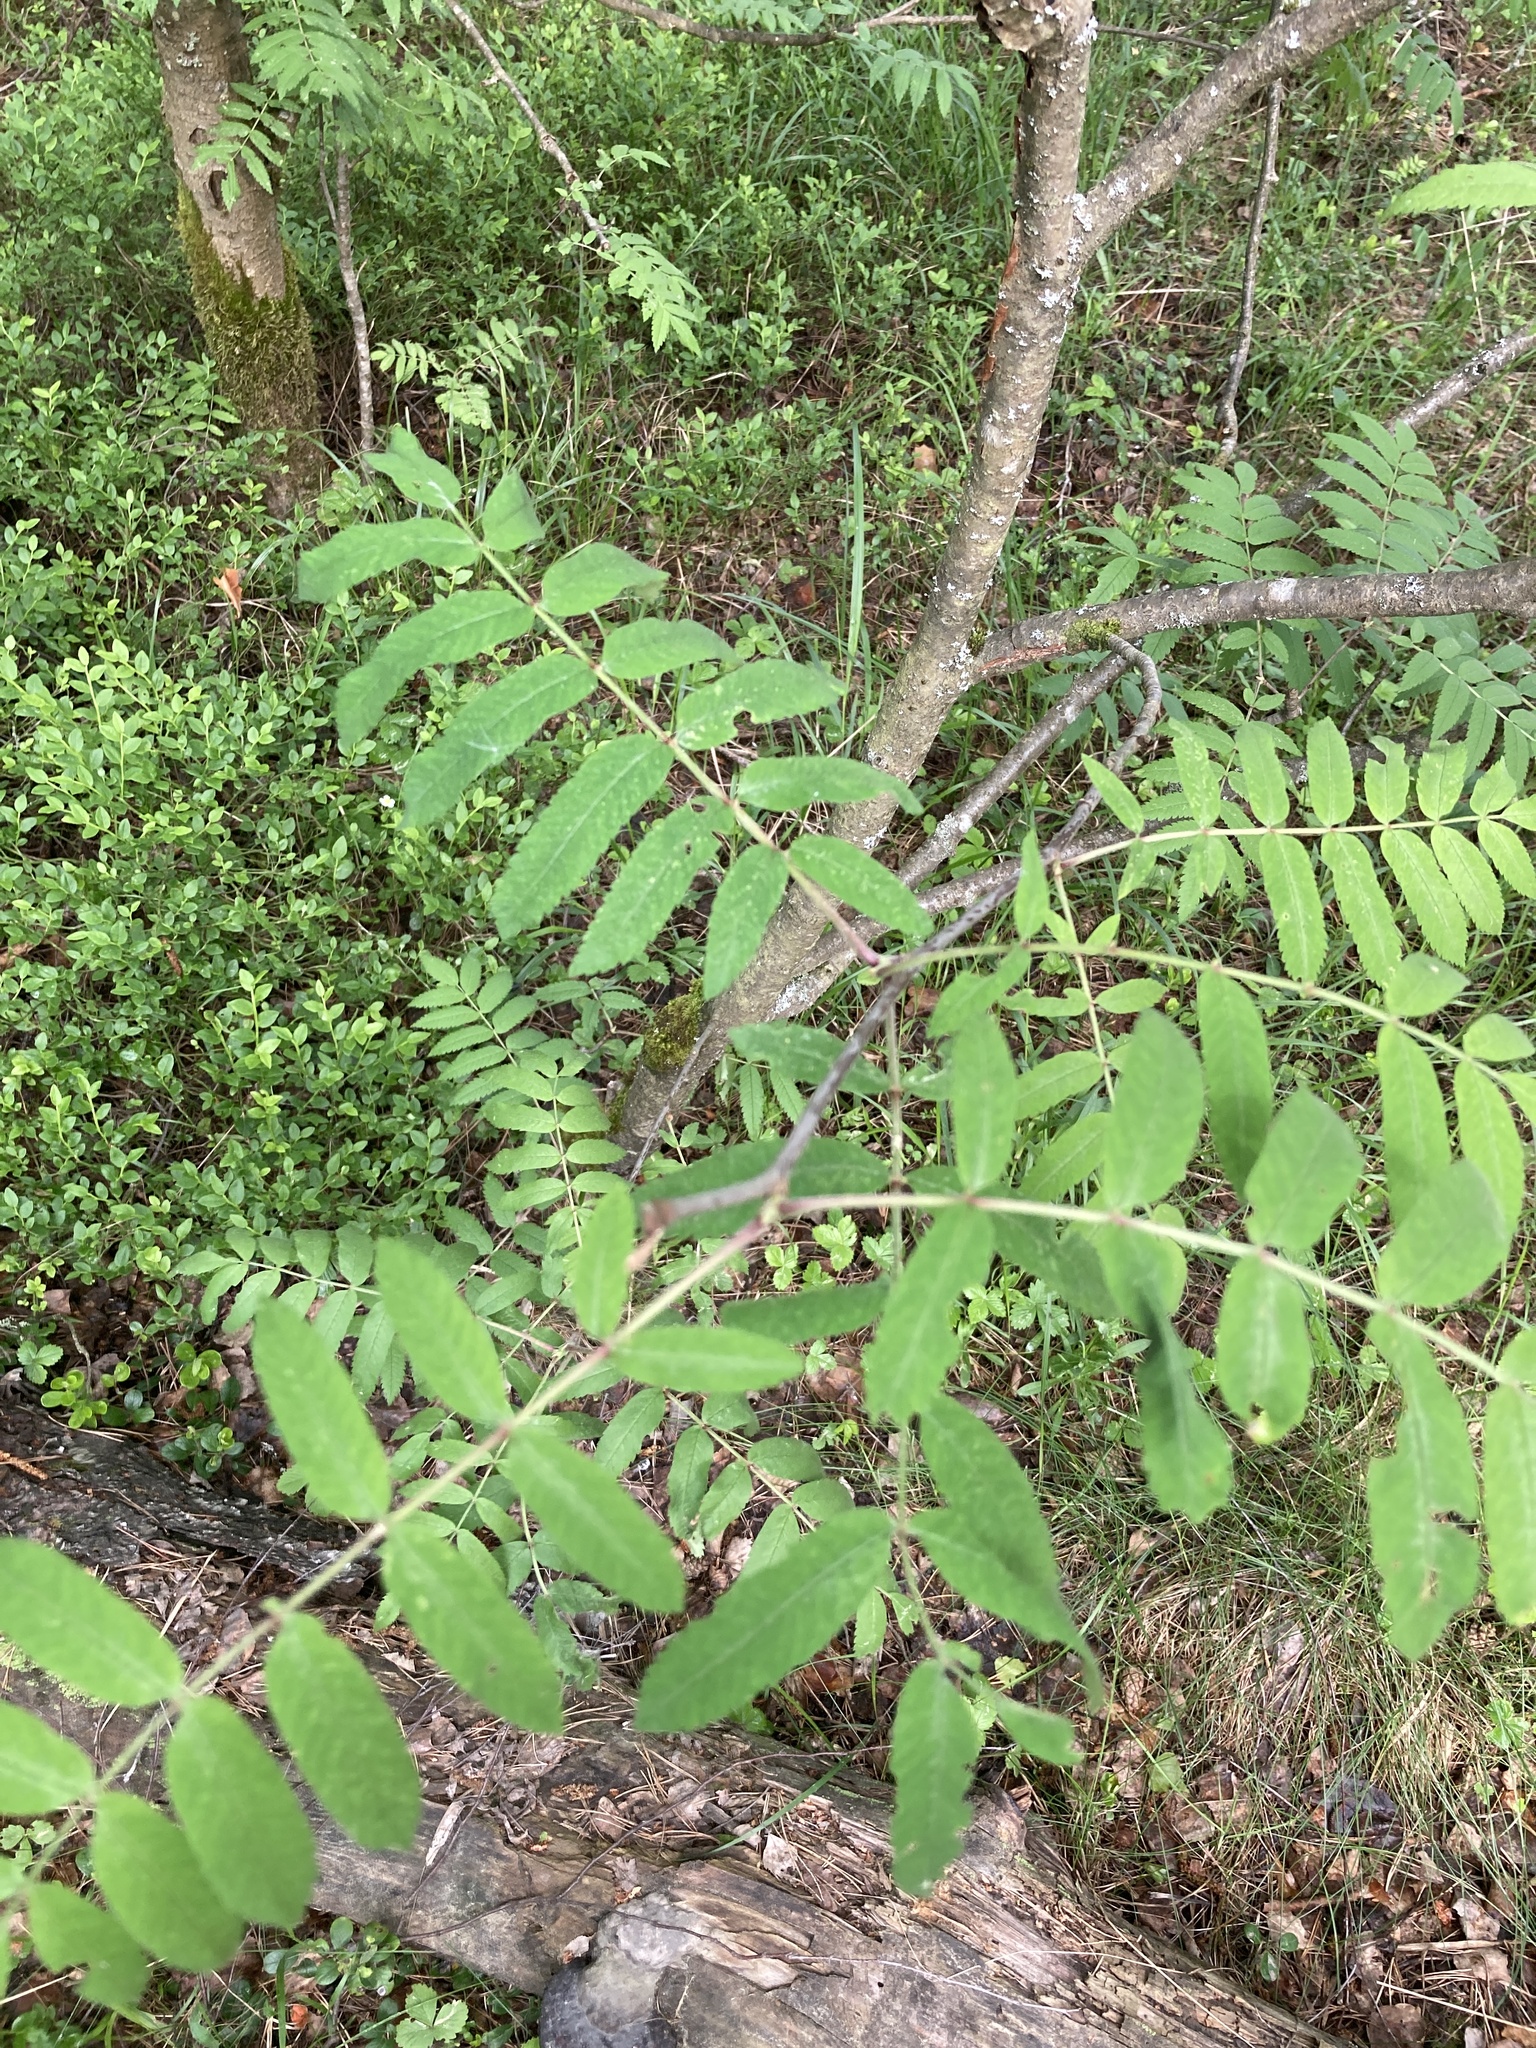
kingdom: Plantae
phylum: Tracheophyta
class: Magnoliopsida
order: Rosales
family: Rosaceae
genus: Sorbus
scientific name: Sorbus aucuparia
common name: Rowan
